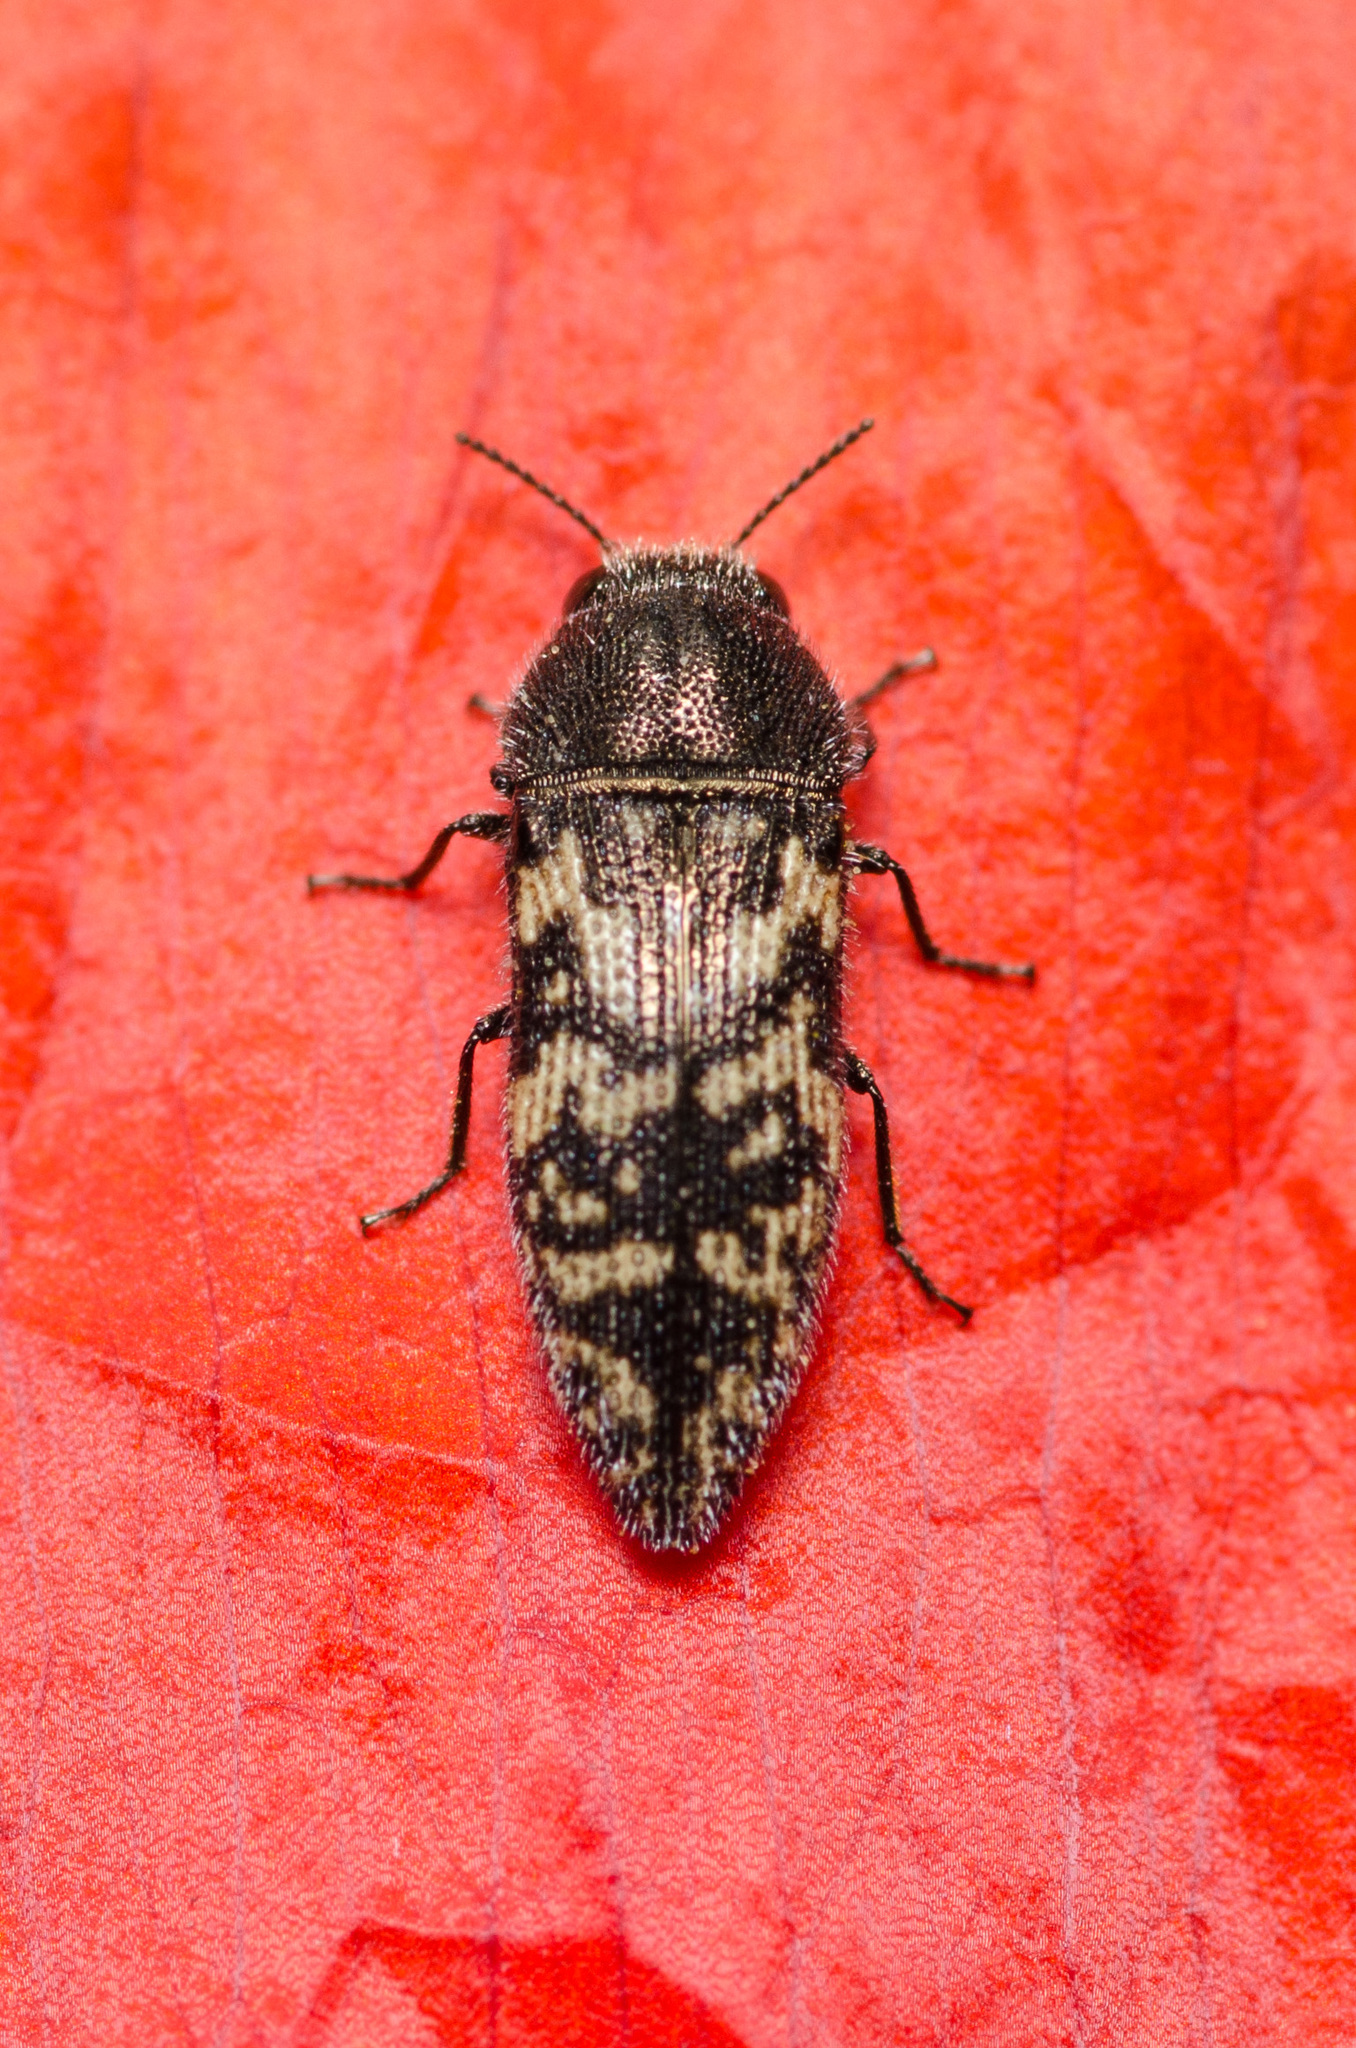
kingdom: Animalia
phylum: Arthropoda
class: Insecta
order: Coleoptera
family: Buprestidae
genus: Acmaeodera
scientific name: Acmaeodera neglecta
